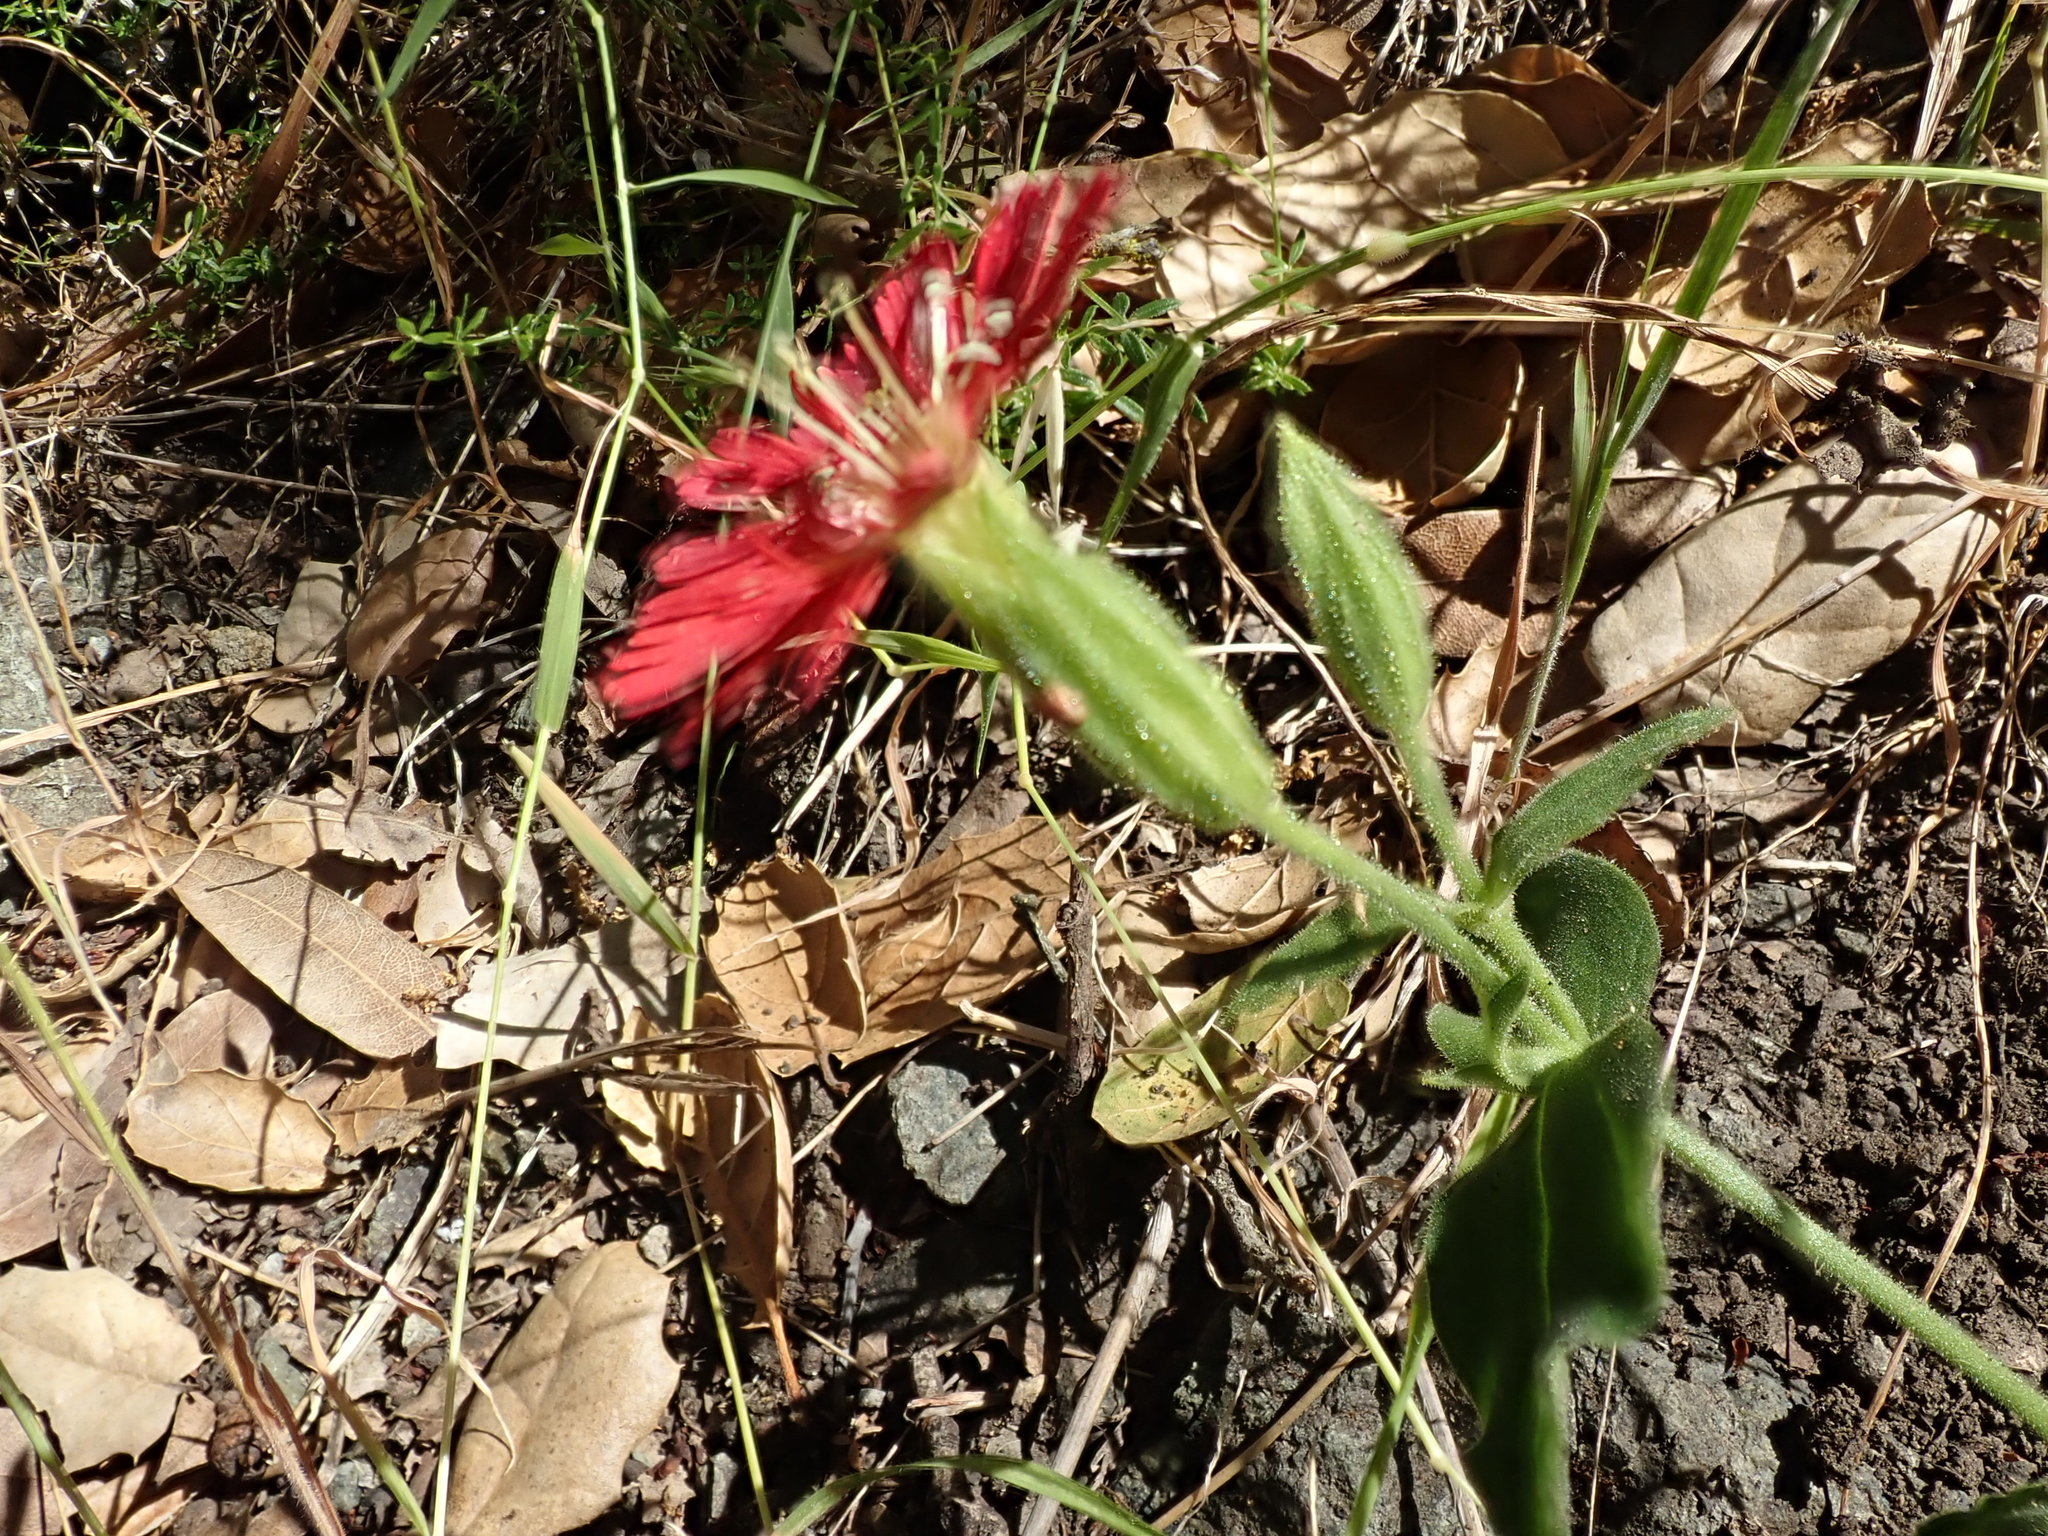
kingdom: Plantae
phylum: Tracheophyta
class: Magnoliopsida
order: Caryophyllales
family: Caryophyllaceae
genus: Silene
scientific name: Silene laciniata
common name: Indian-pink
